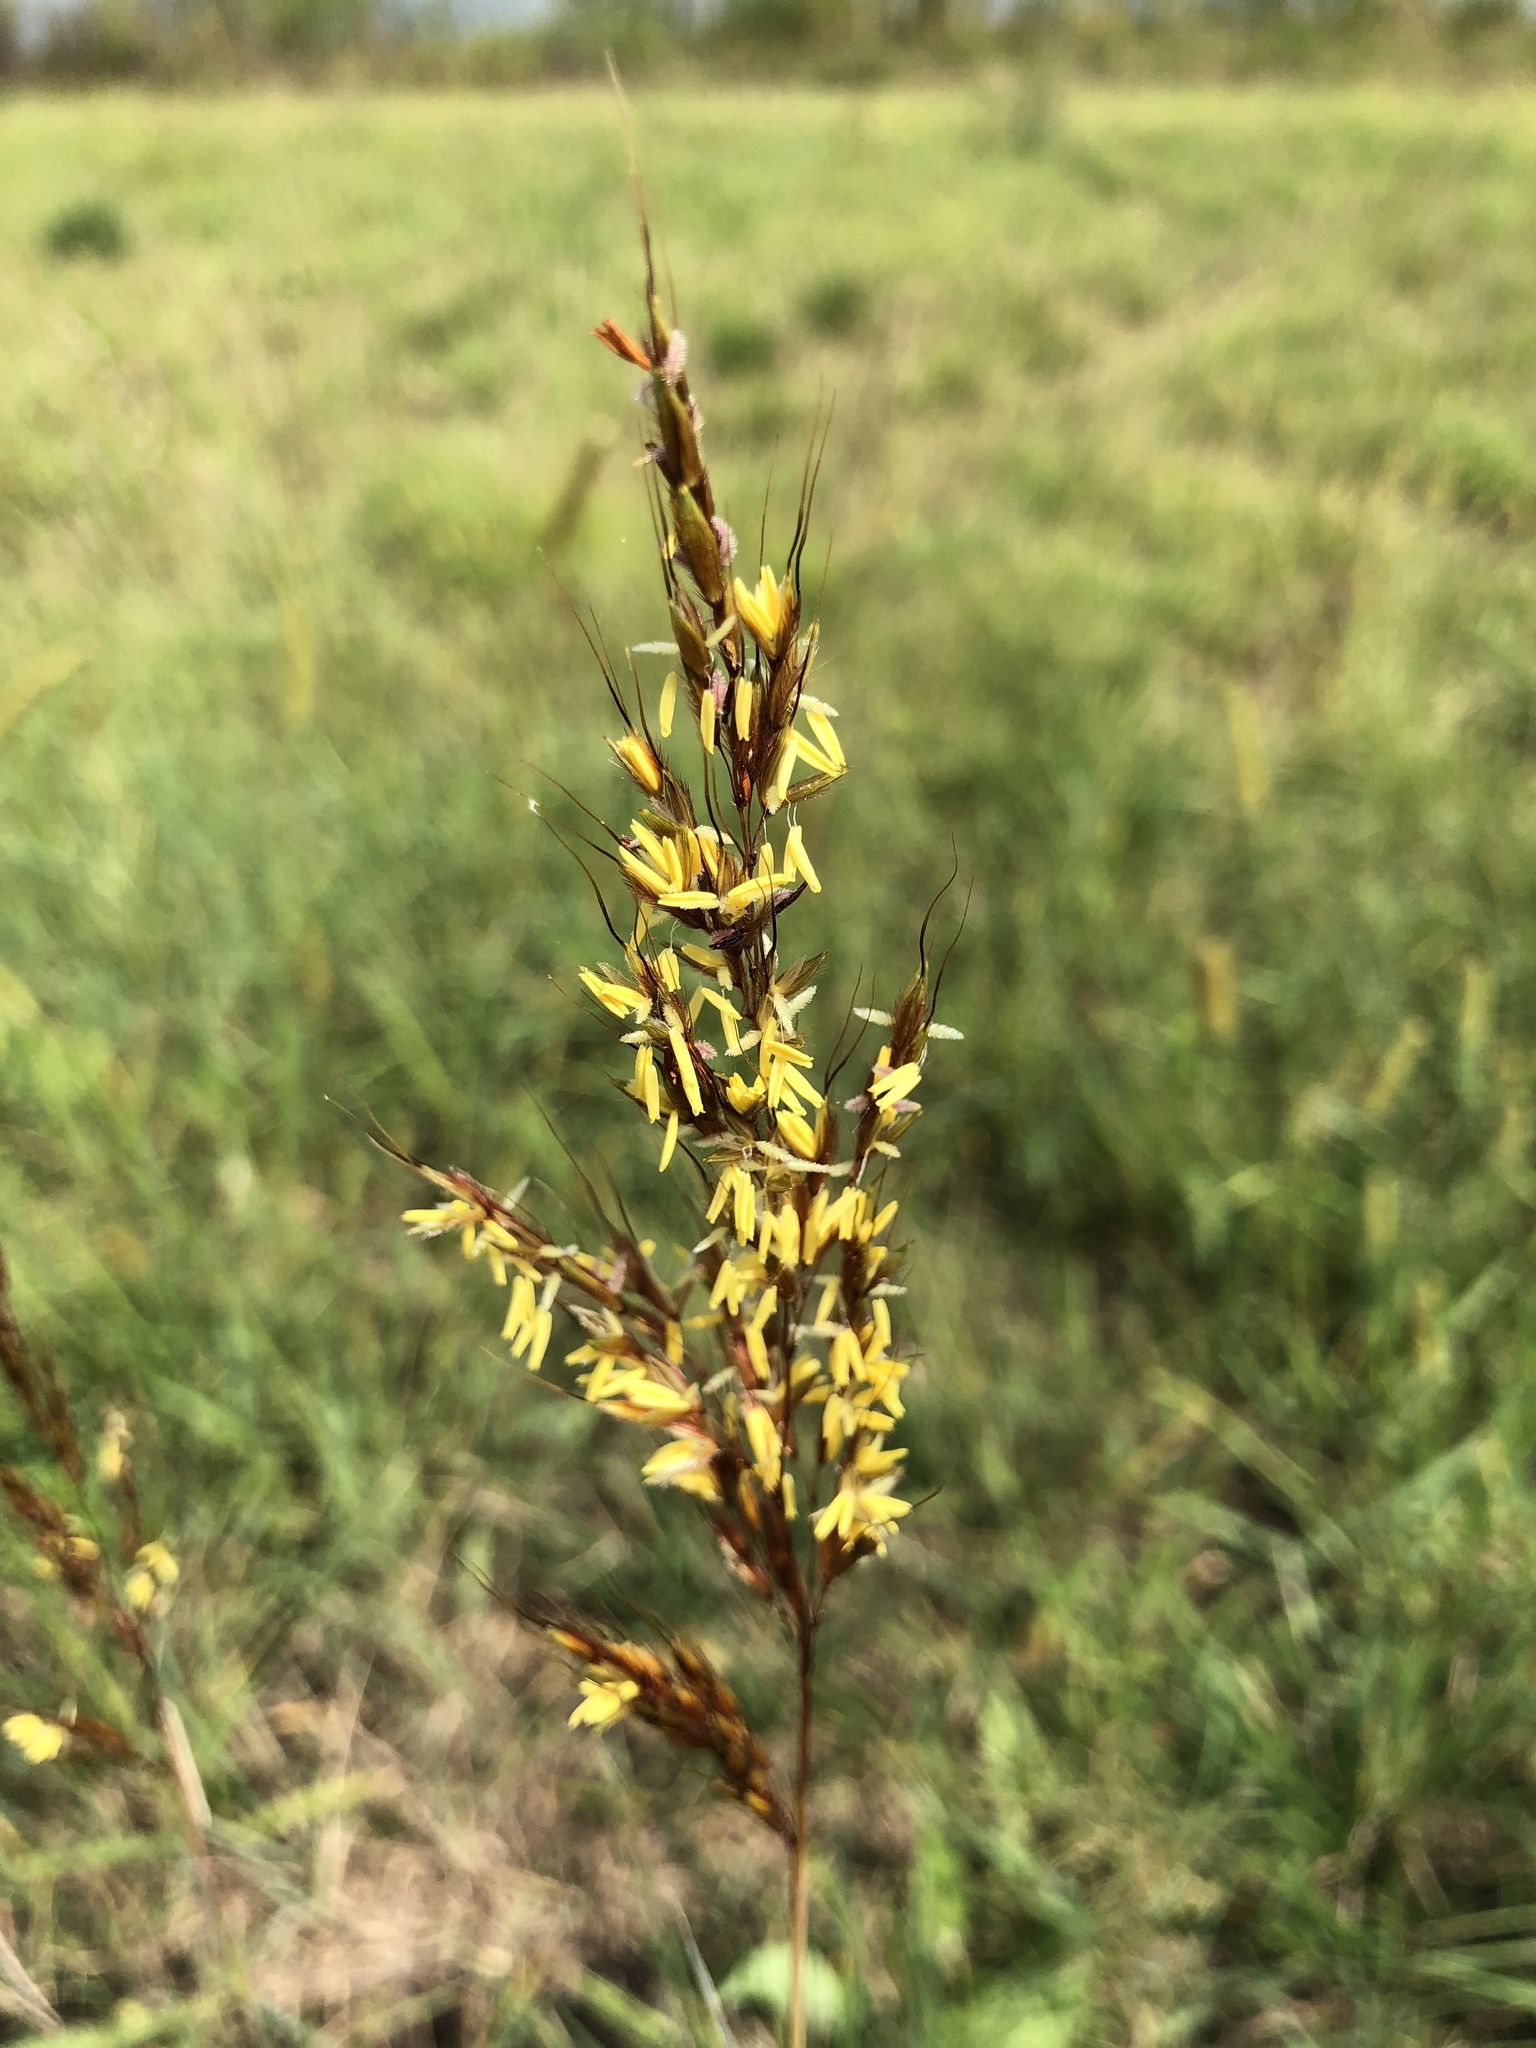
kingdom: Plantae
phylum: Tracheophyta
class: Liliopsida
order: Poales
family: Poaceae
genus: Sorghastrum
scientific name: Sorghastrum nutans
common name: Indian grass
